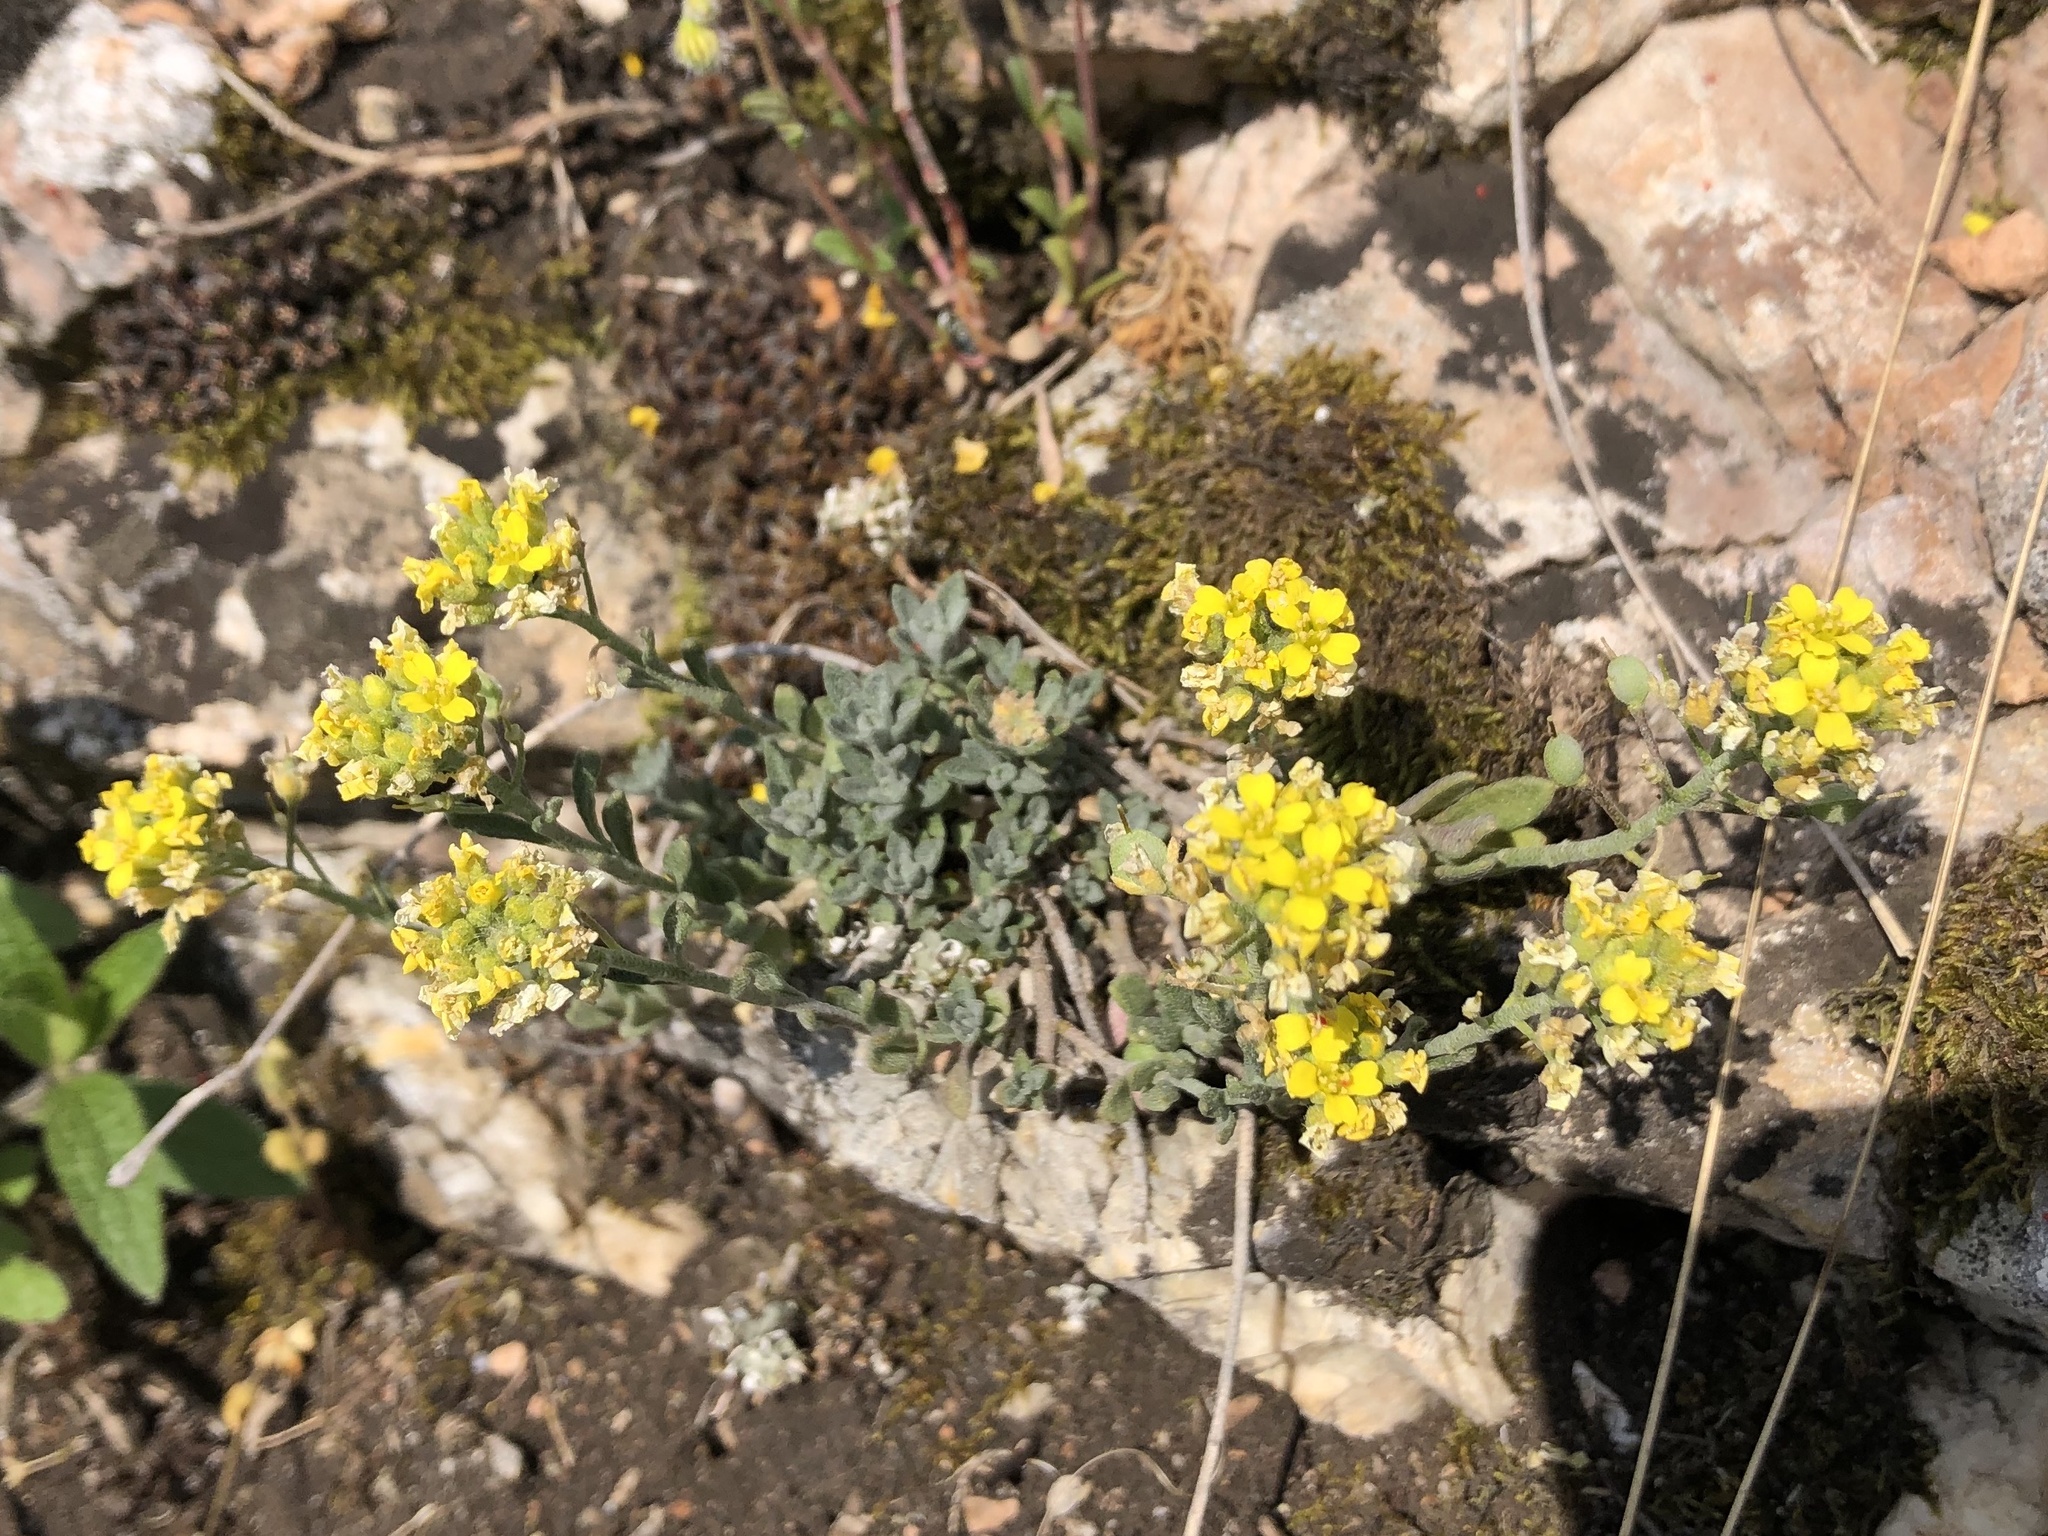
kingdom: Plantae
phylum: Tracheophyta
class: Magnoliopsida
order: Brassicales
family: Brassicaceae
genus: Alyssum
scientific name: Alyssum gmelinii
